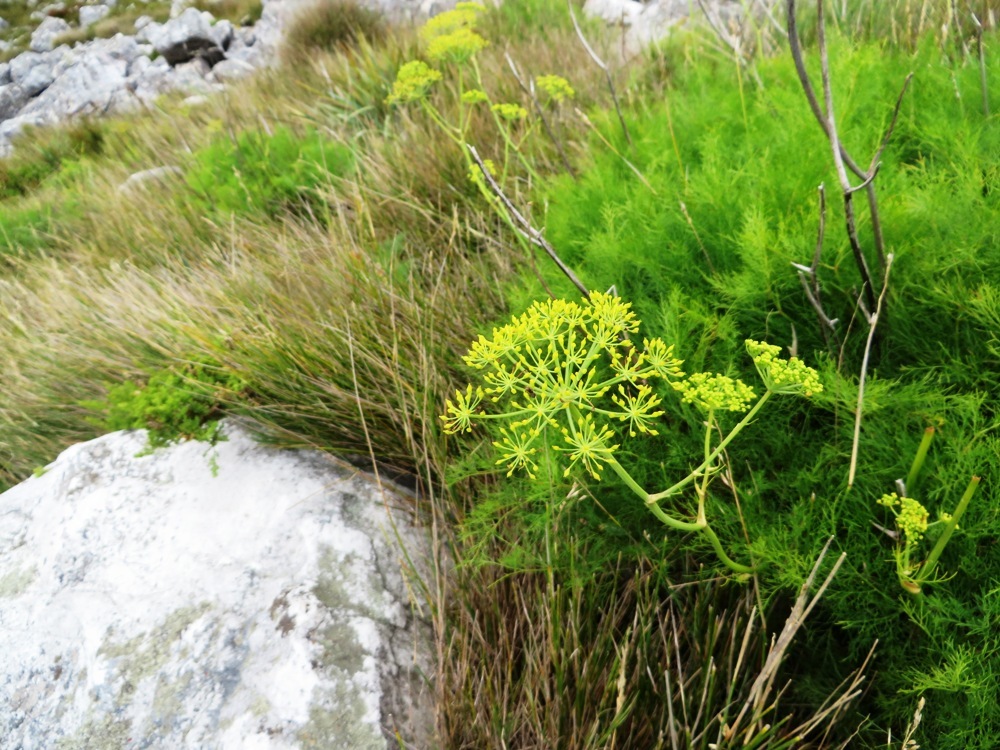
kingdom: Plantae
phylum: Tracheophyta
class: Magnoliopsida
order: Apiales
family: Apiaceae
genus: Notobubon
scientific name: Notobubon sonderi
